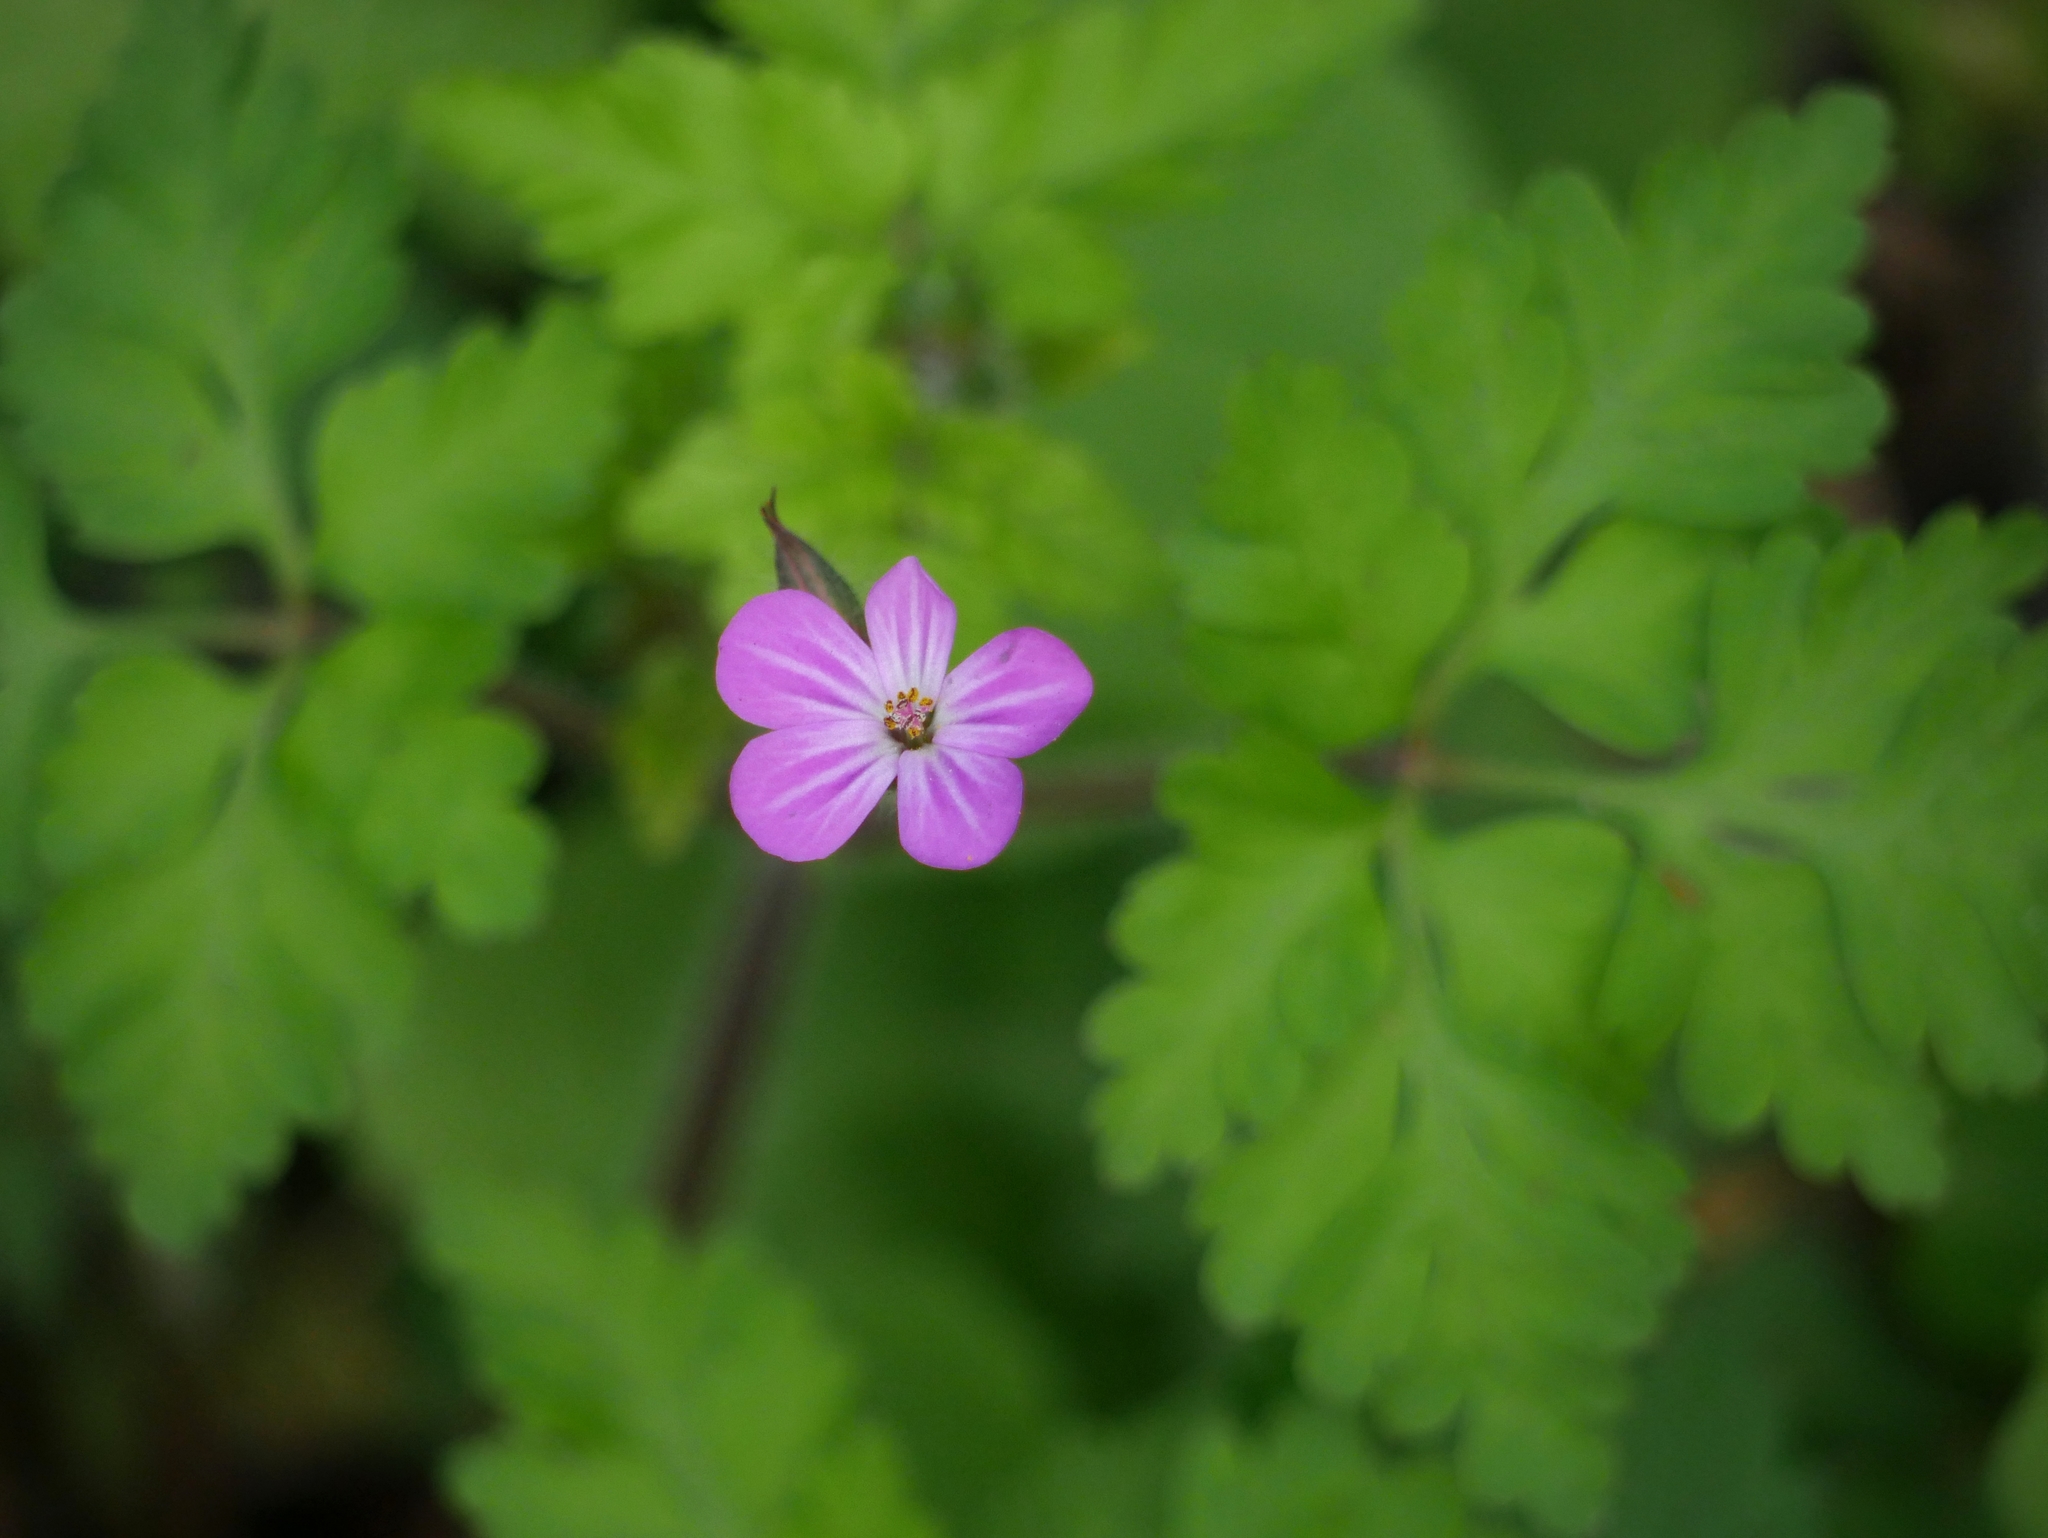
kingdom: Plantae
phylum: Tracheophyta
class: Magnoliopsida
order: Geraniales
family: Geraniaceae
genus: Geranium
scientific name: Geranium robertianum
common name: Herb-robert
